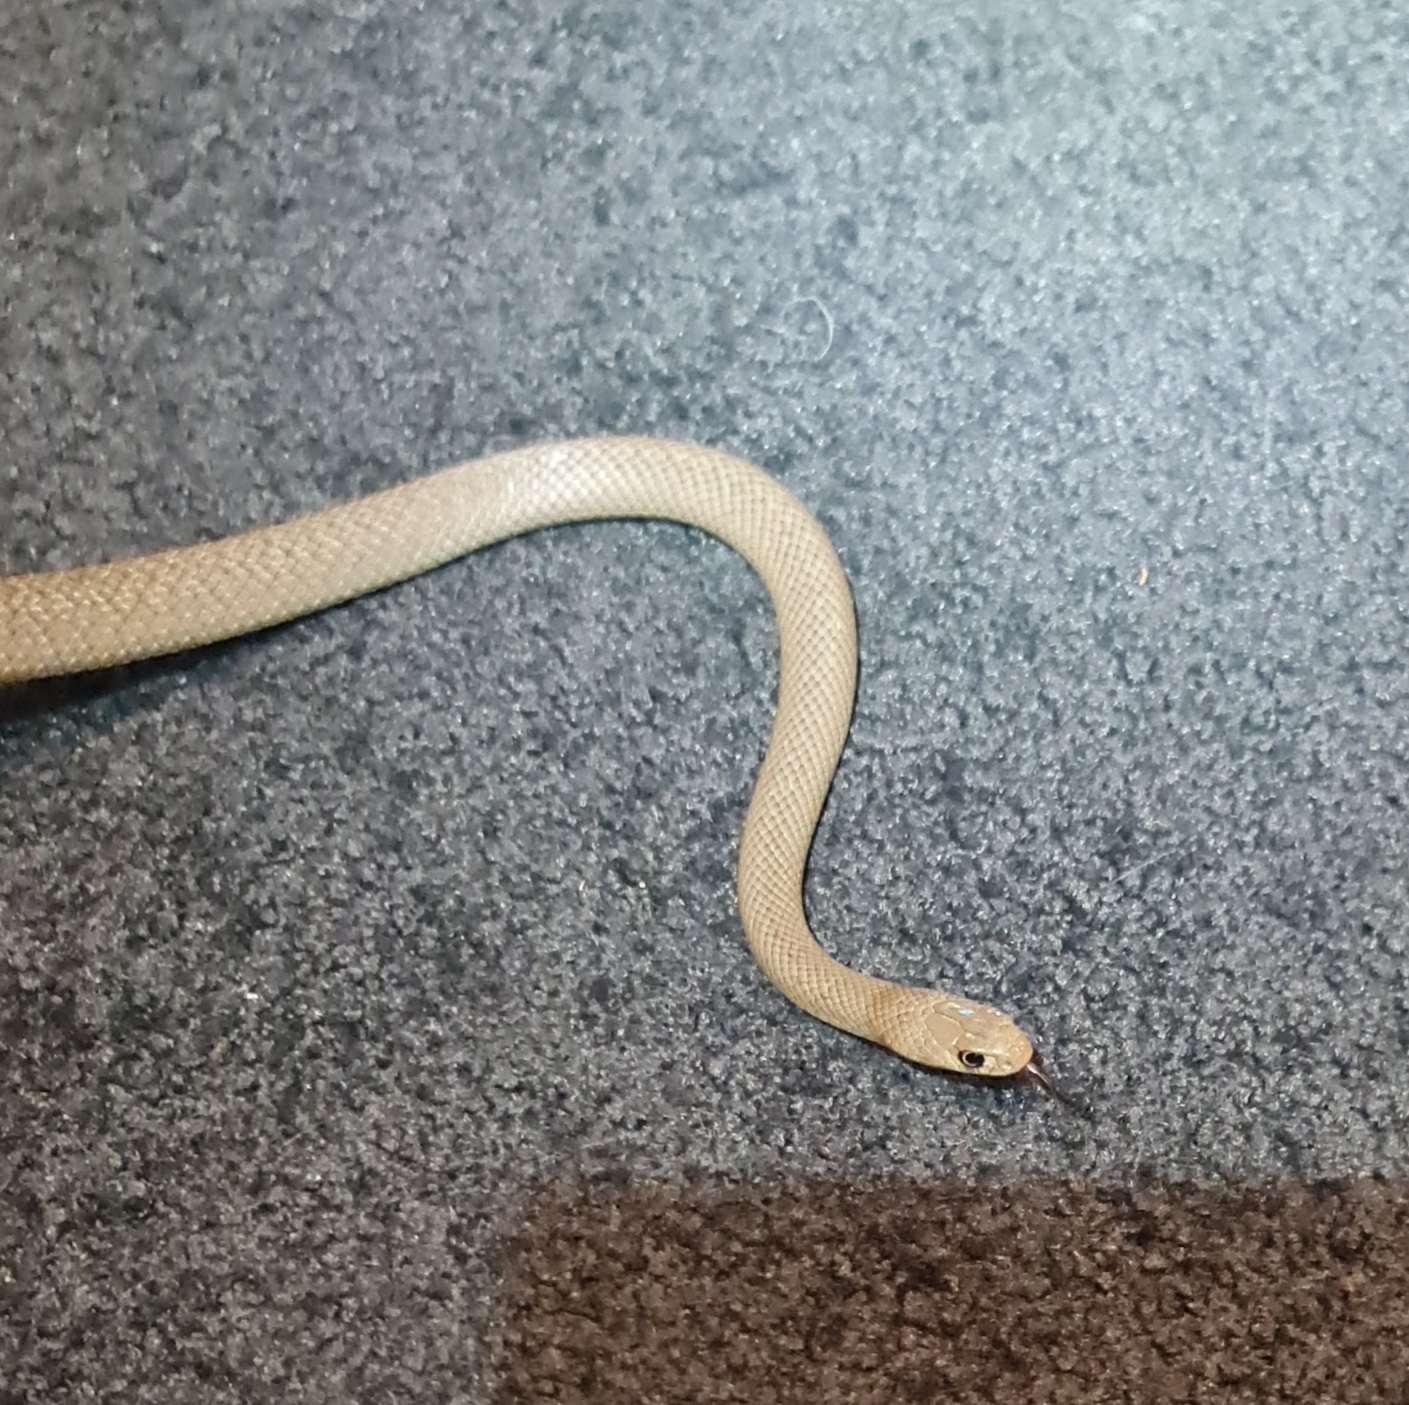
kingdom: Animalia
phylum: Chordata
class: Squamata
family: Elapidae
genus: Pseudonaja
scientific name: Pseudonaja textilis
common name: Eastern brown snake
